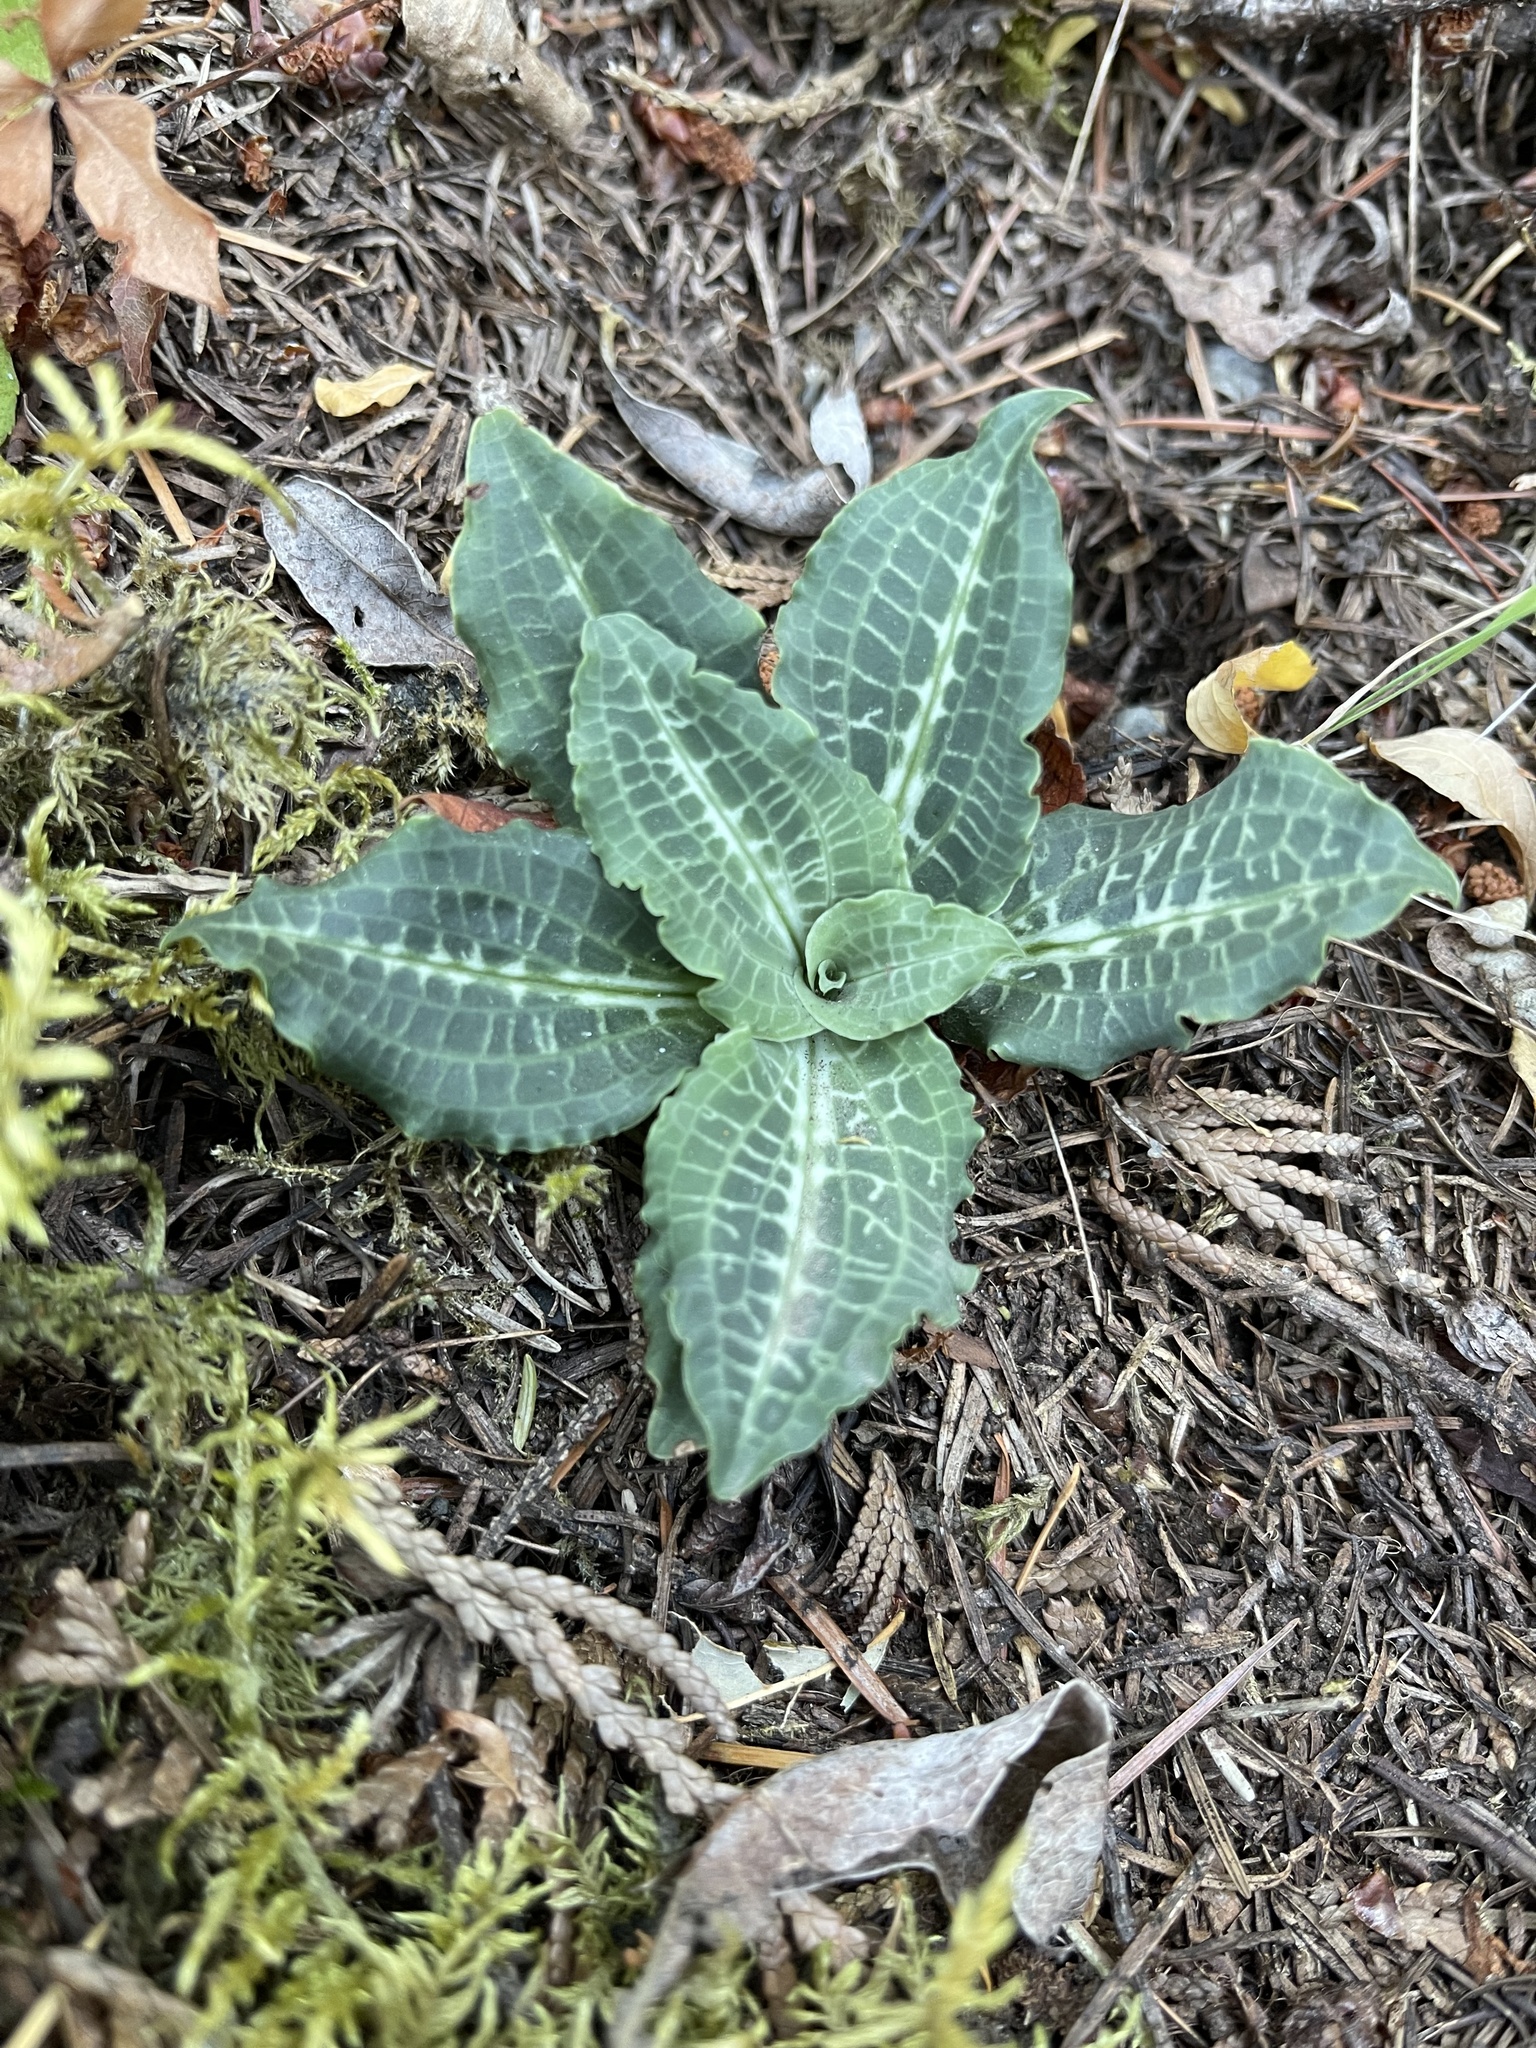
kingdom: Plantae
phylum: Tracheophyta
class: Liliopsida
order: Asparagales
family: Orchidaceae
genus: Goodyera
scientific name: Goodyera oblongifolia
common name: Giant rattlesnake-plantain
